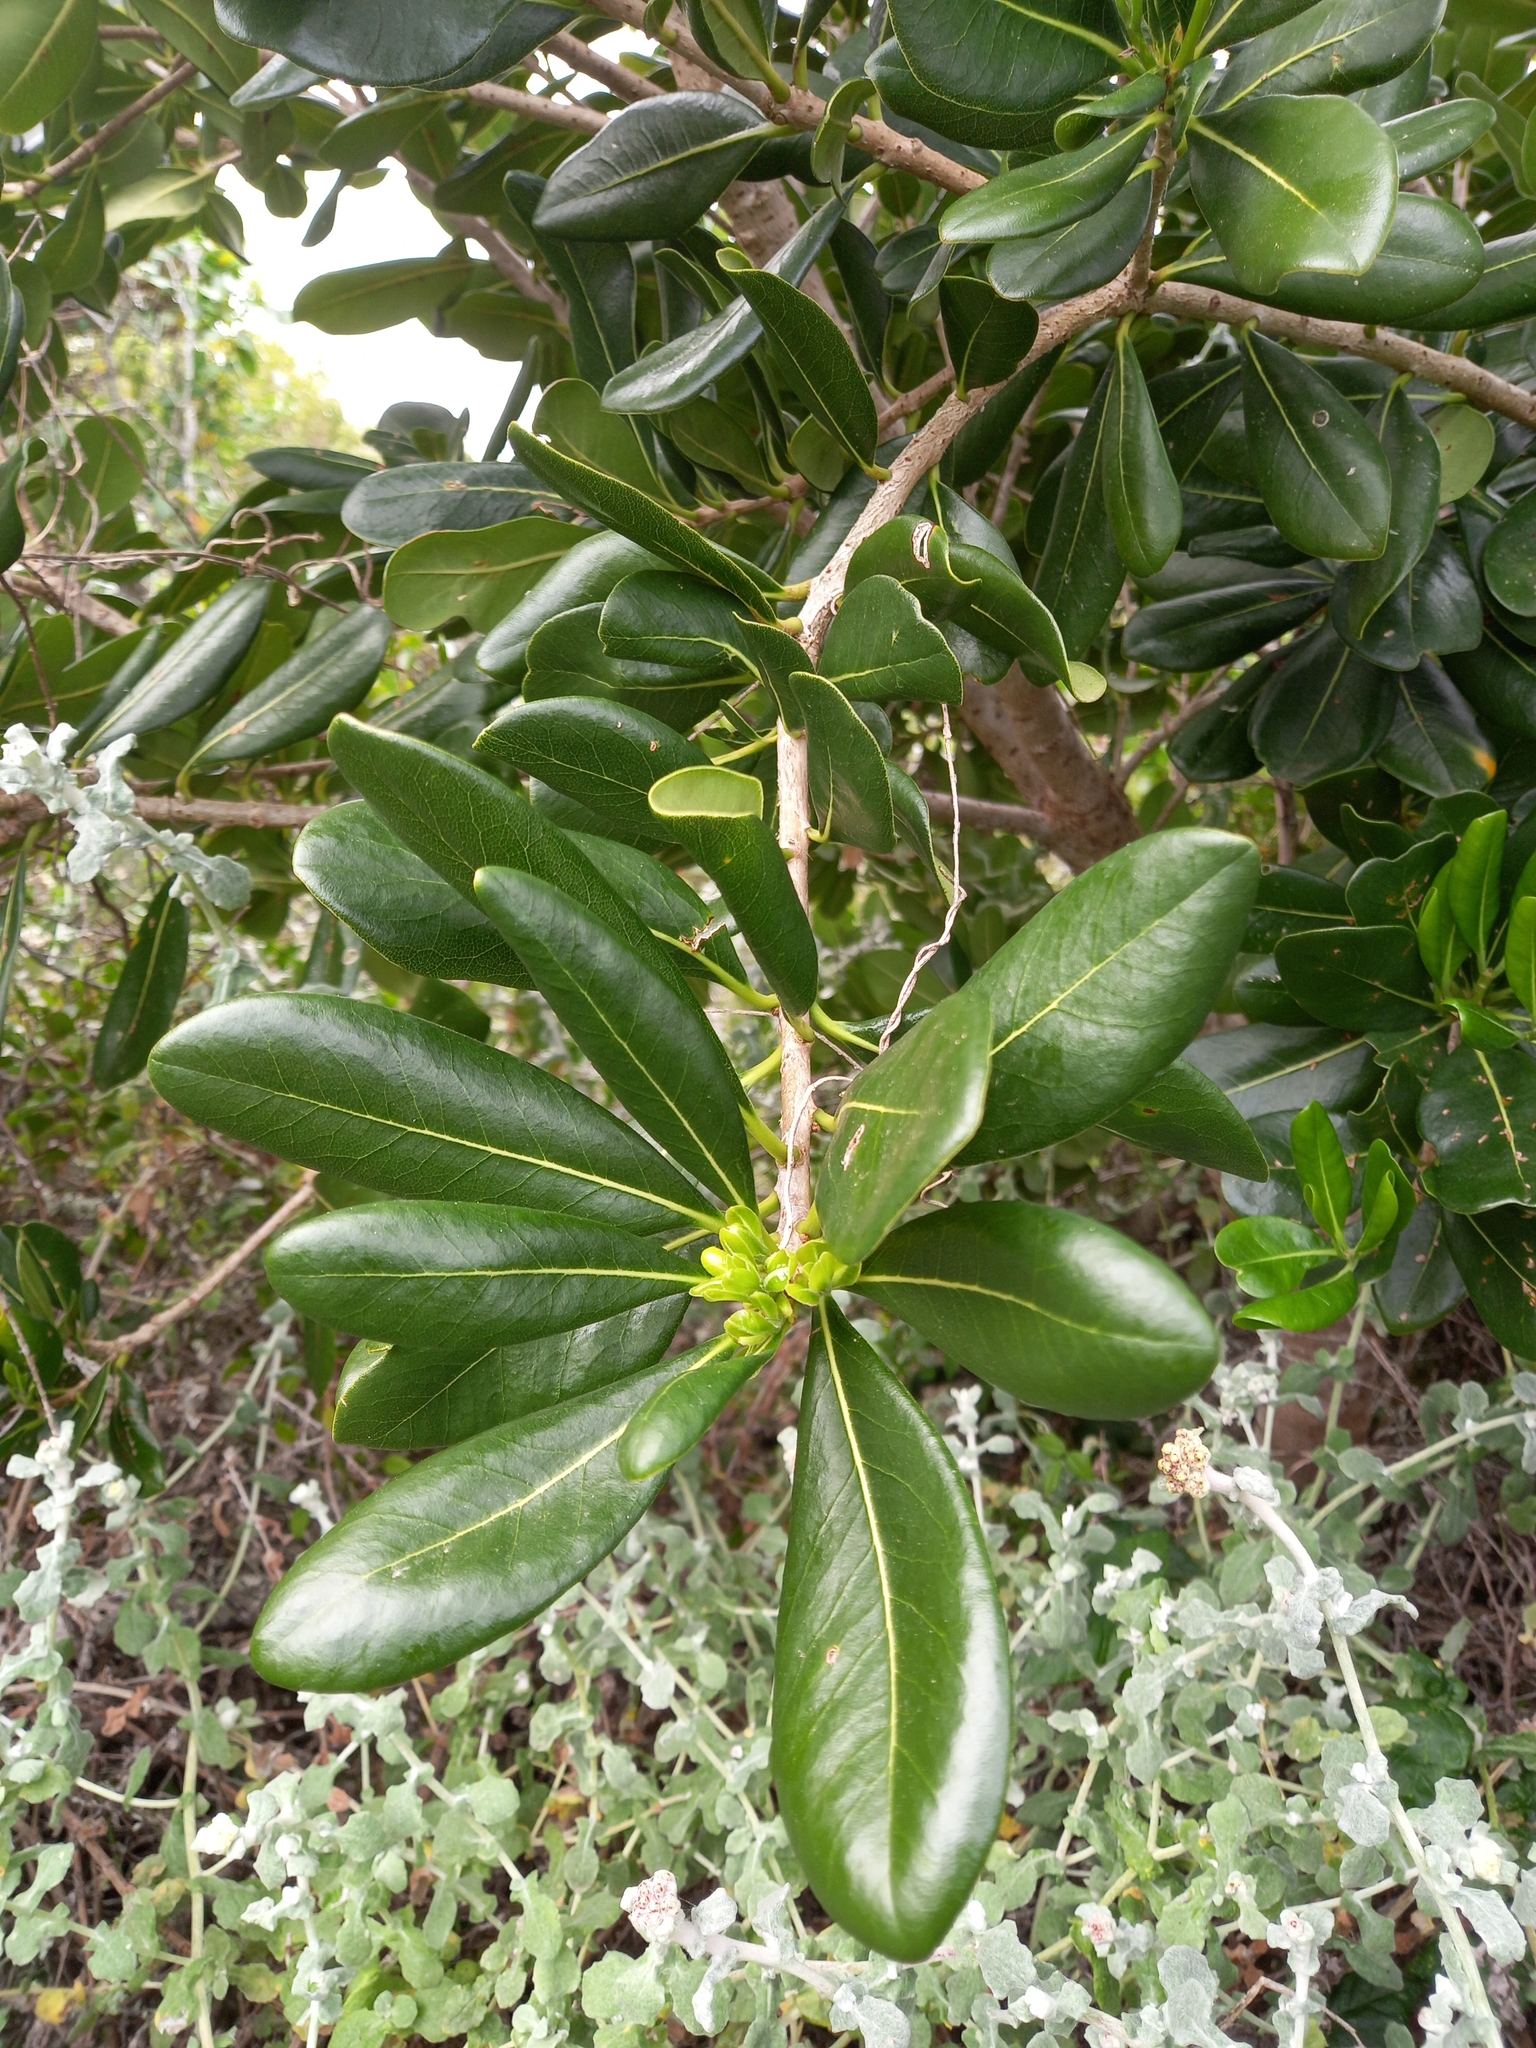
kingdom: Plantae
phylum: Tracheophyta
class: Magnoliopsida
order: Apiales
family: Pittosporaceae
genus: Pittosporum
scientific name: Pittosporum viridiflorum
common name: Cape cheesewood
